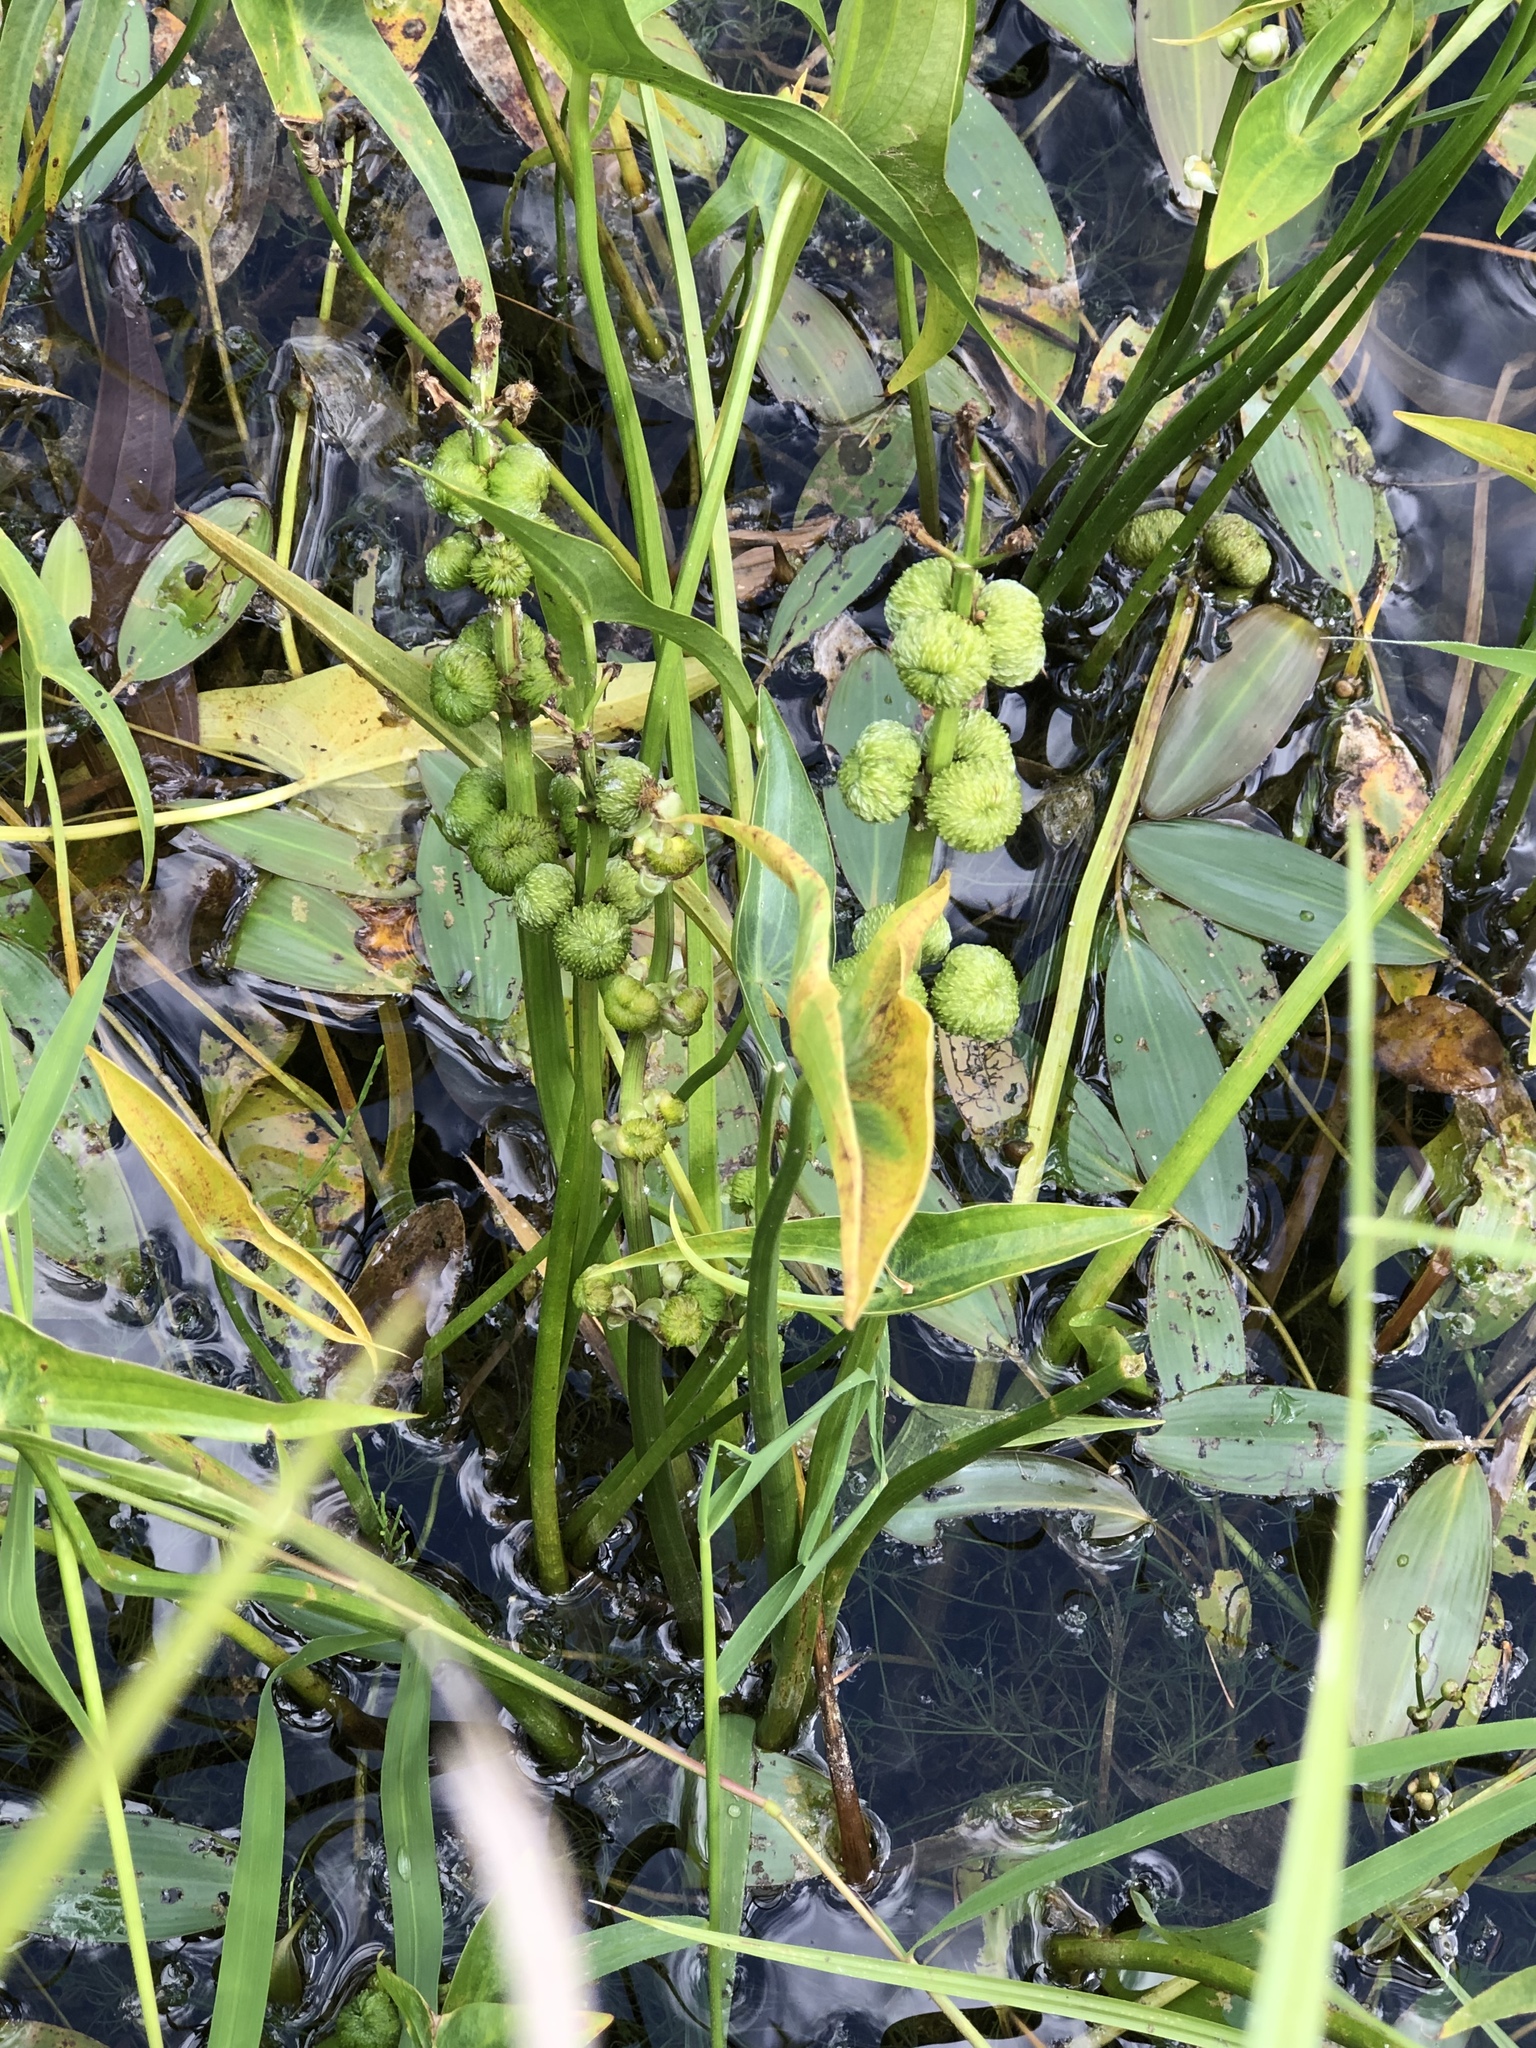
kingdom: Plantae
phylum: Tracheophyta
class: Liliopsida
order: Alismatales
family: Alismataceae
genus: Sagittaria
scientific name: Sagittaria latifolia
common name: Duck-potato
